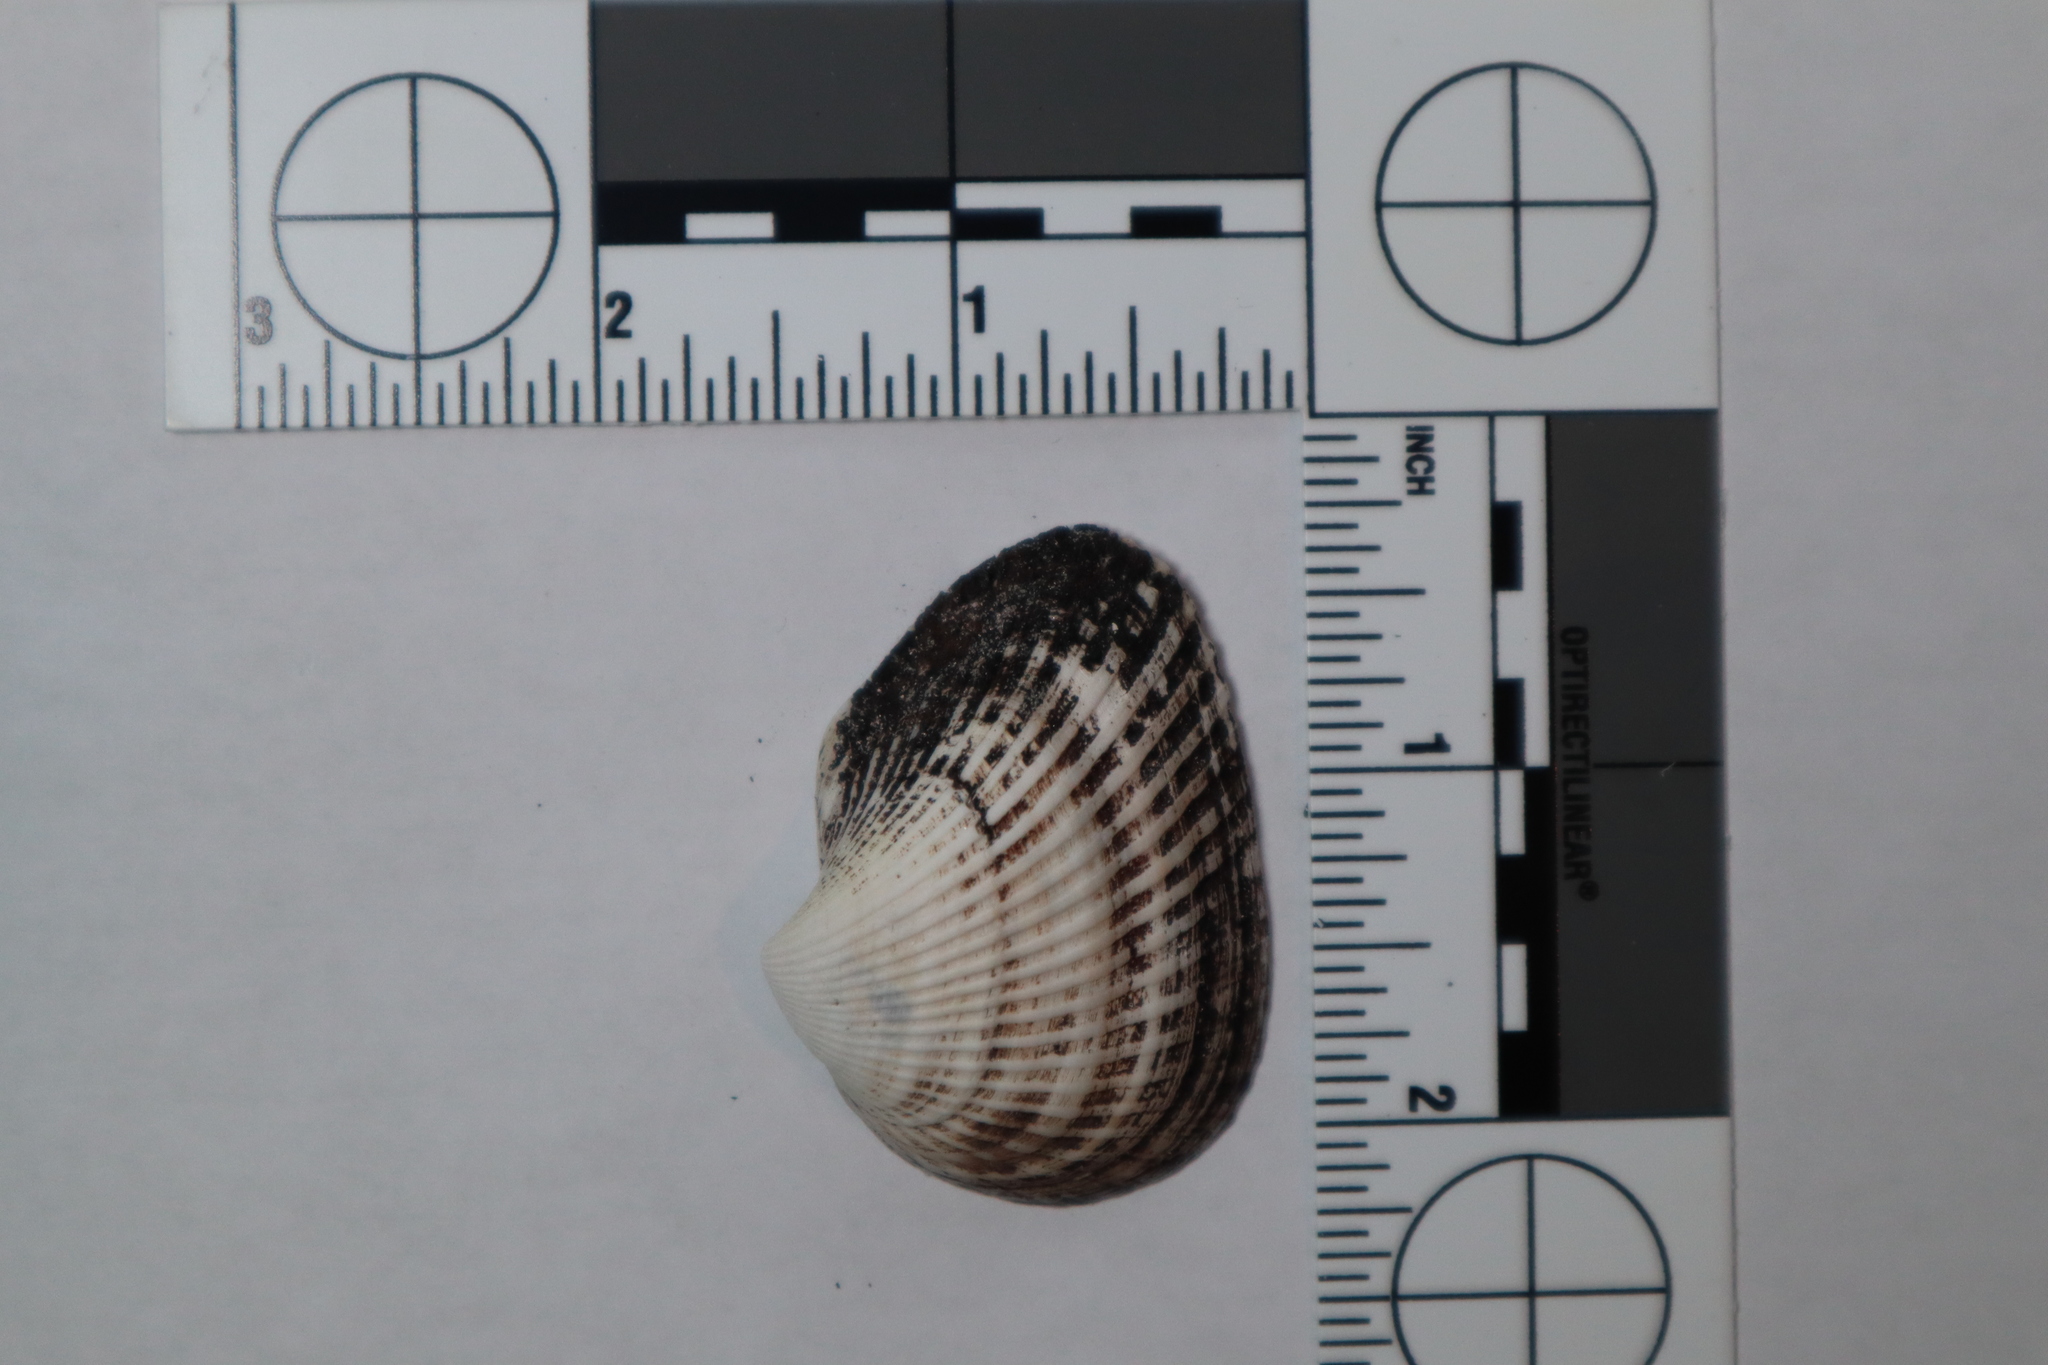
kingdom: Animalia
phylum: Mollusca
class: Bivalvia
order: Arcida
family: Noetiidae
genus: Noetia
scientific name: Noetia ponderosa
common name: Ponderous ark
